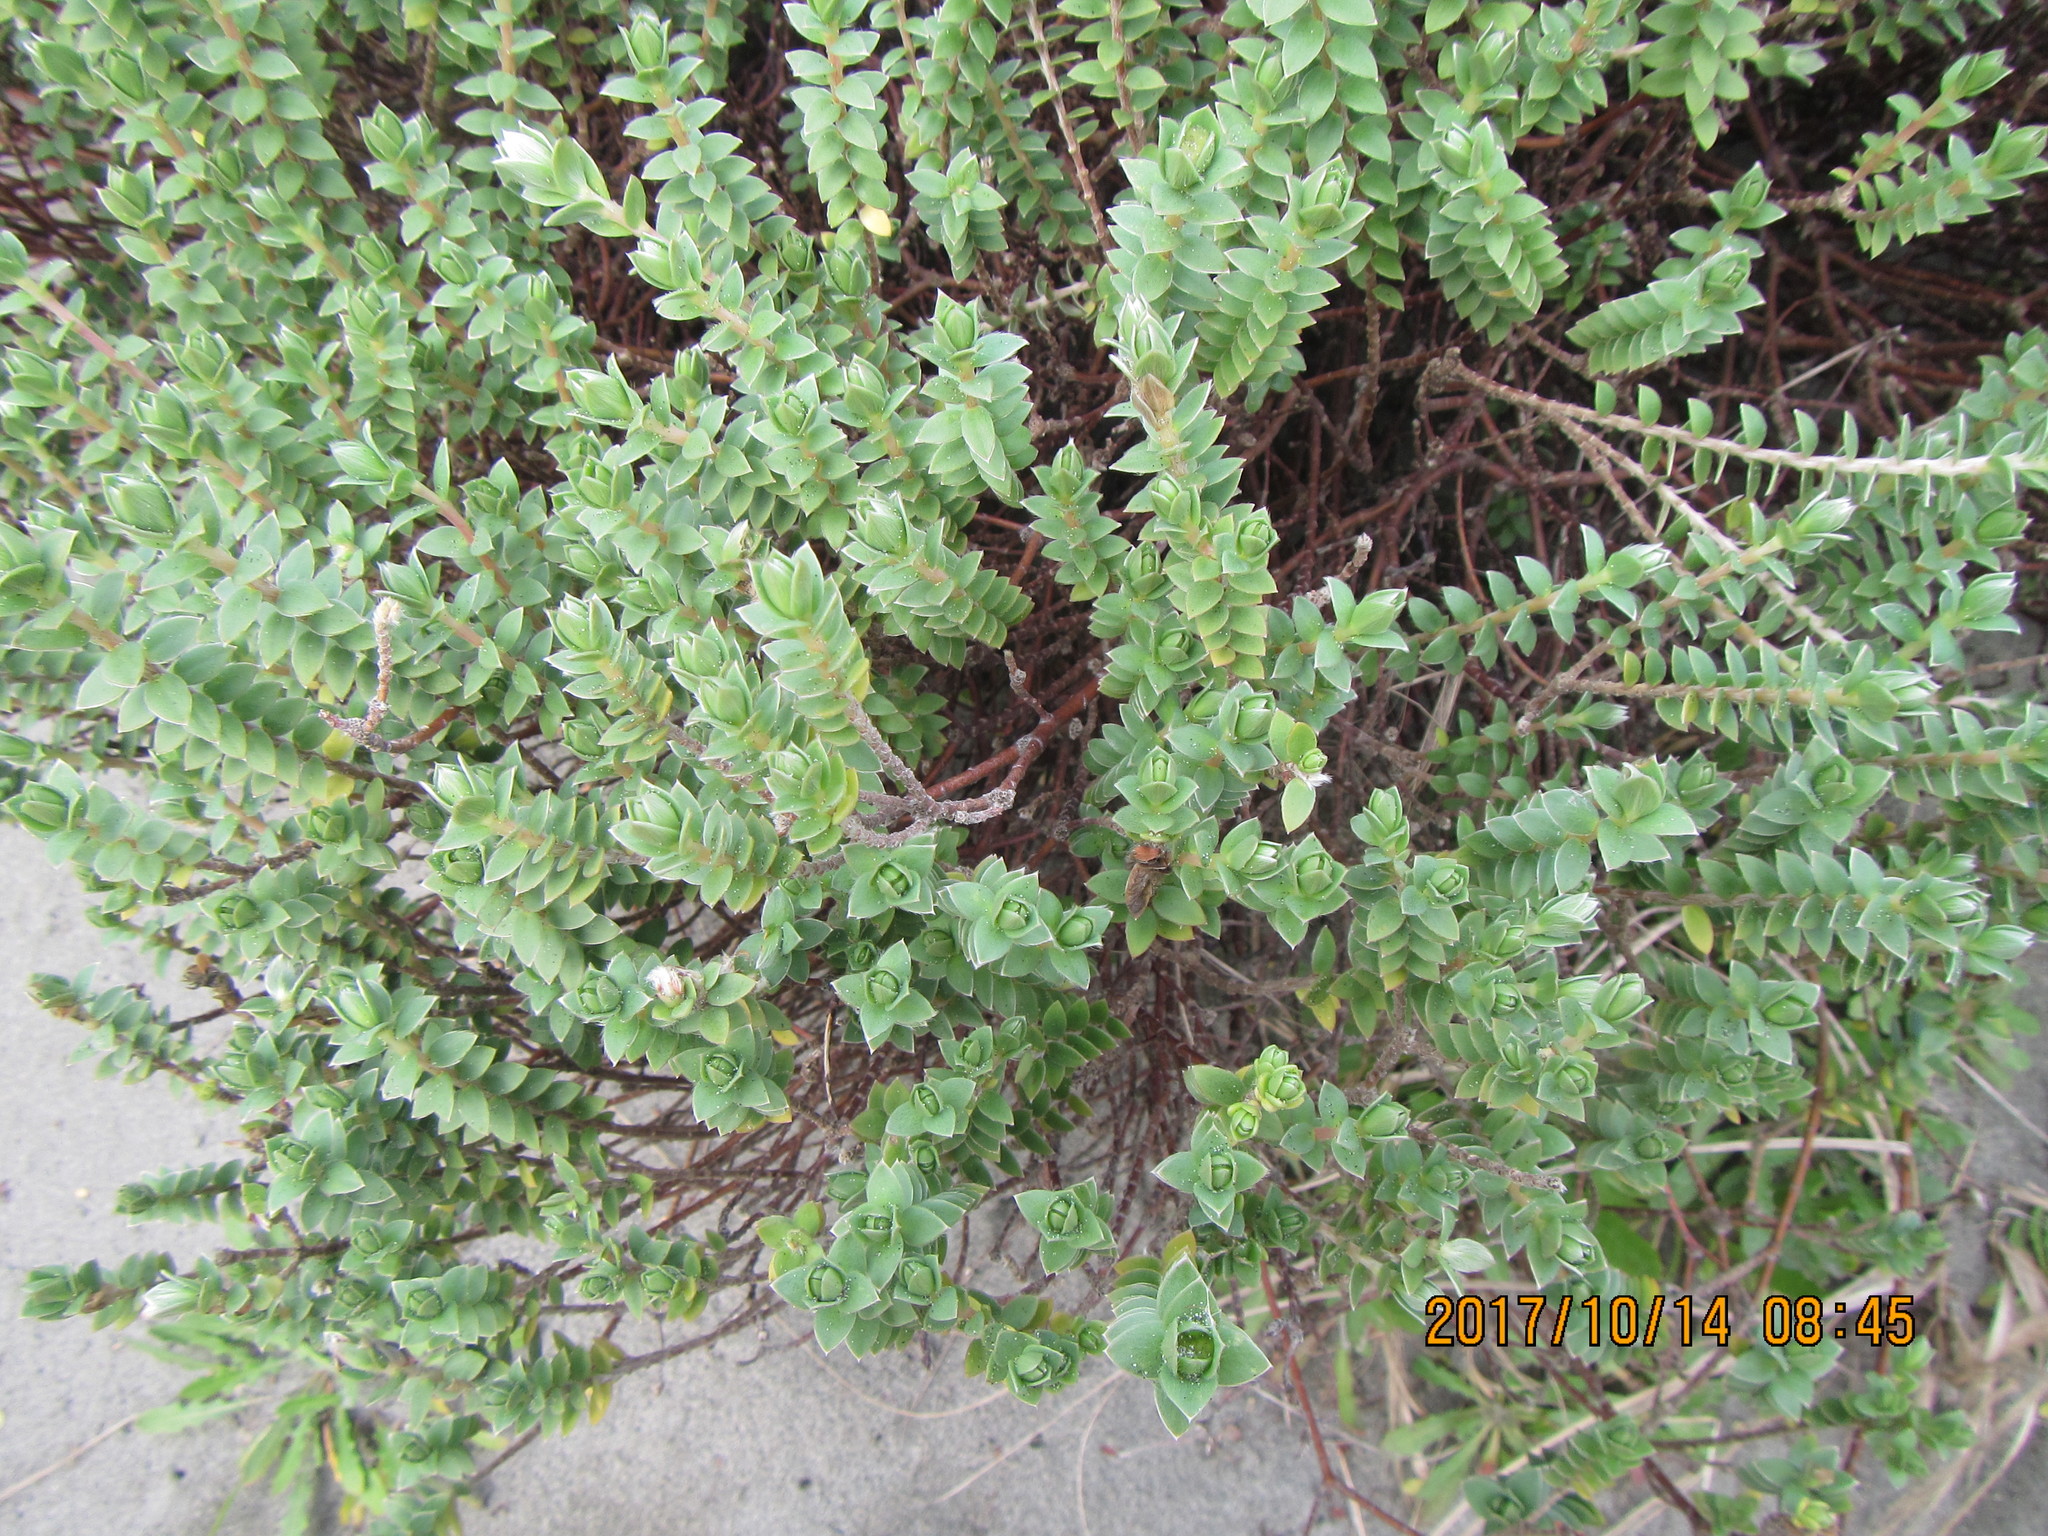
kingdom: Plantae
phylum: Tracheophyta
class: Magnoliopsida
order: Malvales
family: Thymelaeaceae
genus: Pimelea
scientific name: Pimelea villosa
